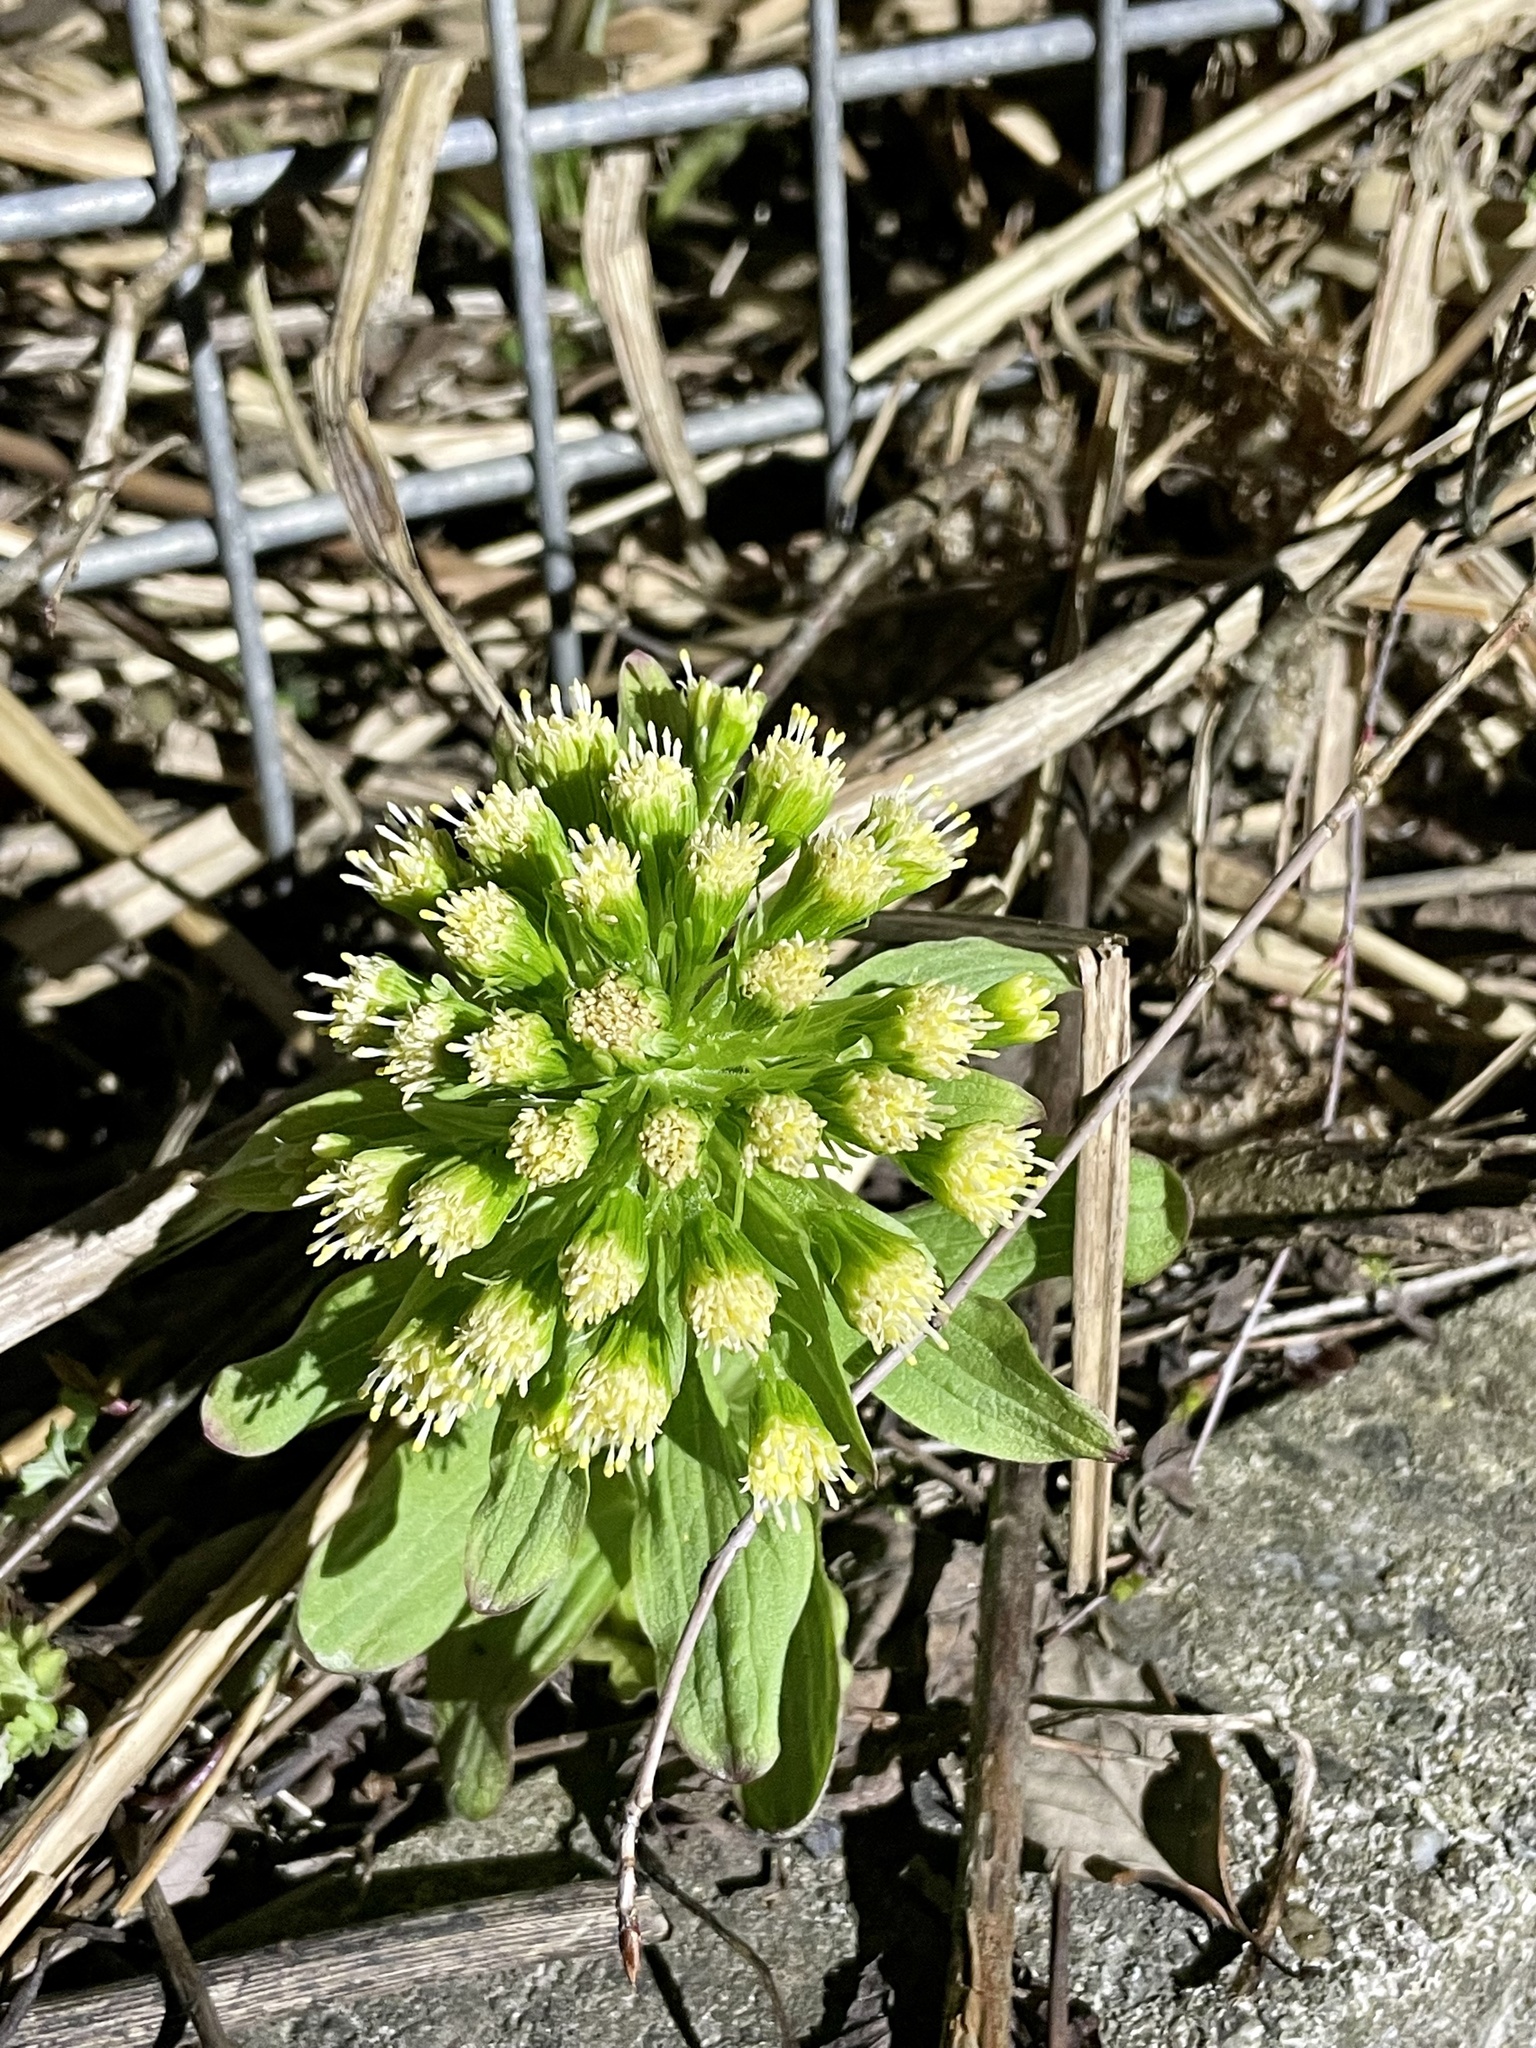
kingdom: Plantae
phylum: Tracheophyta
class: Magnoliopsida
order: Asterales
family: Asteraceae
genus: Petasites
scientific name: Petasites japonicus
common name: Giant butterbur
